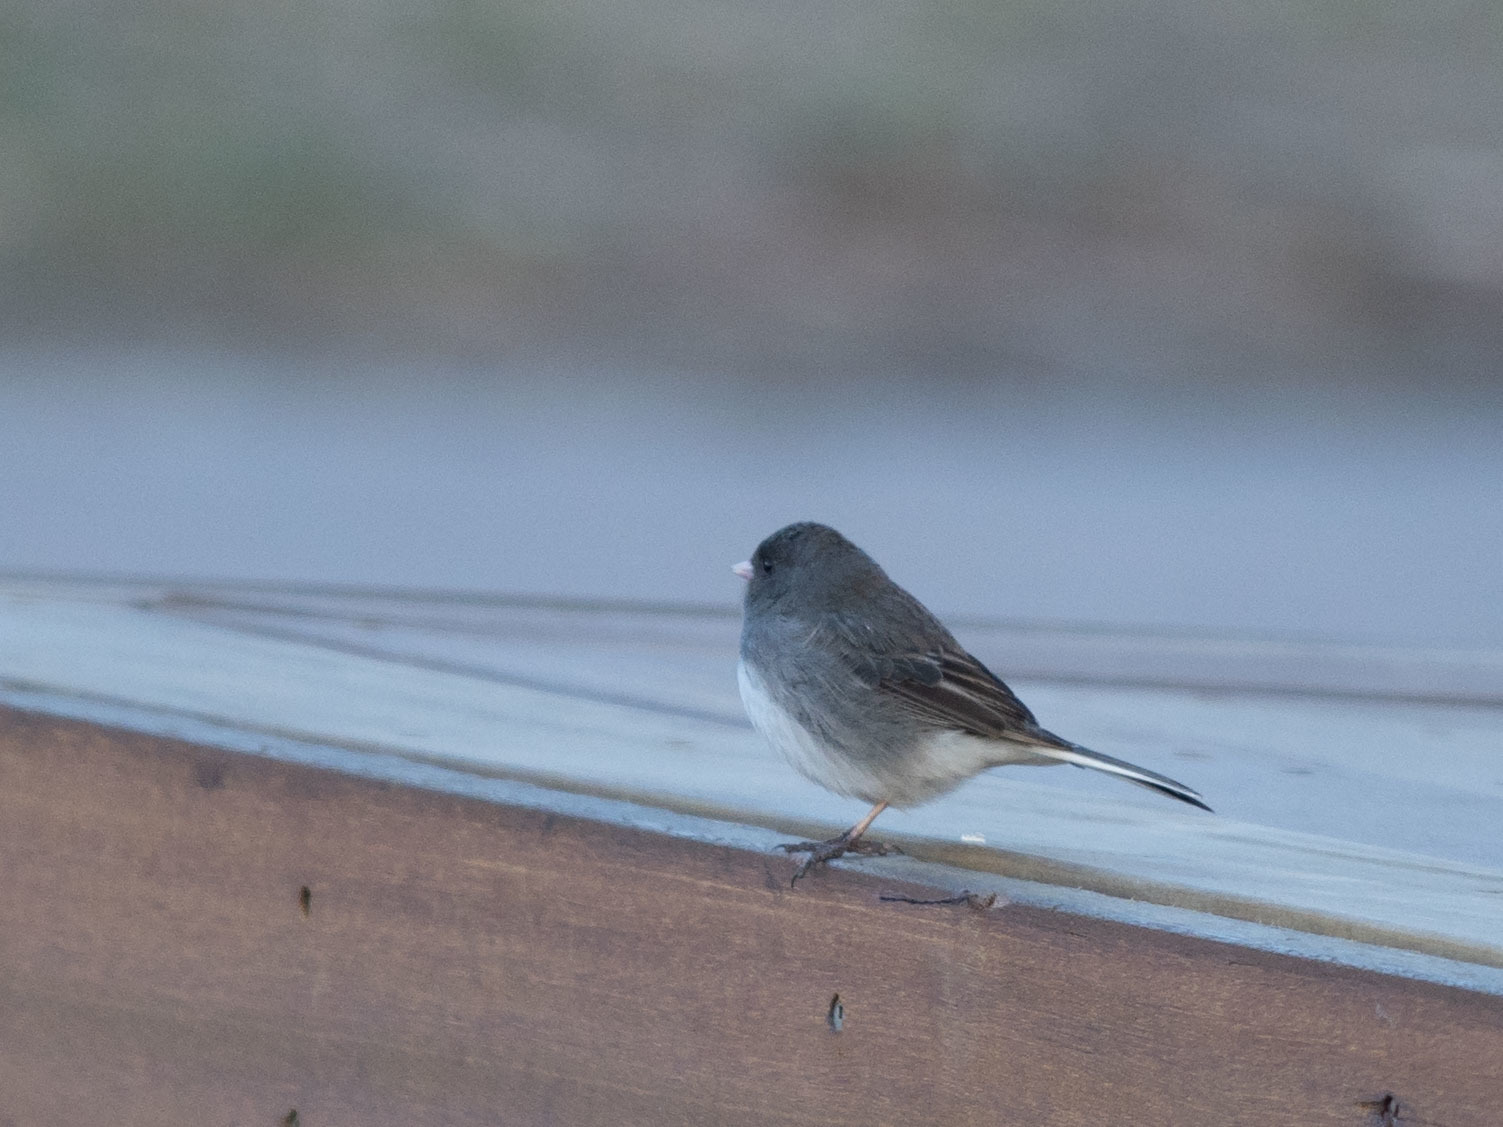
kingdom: Animalia
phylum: Chordata
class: Aves
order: Passeriformes
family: Passerellidae
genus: Junco
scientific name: Junco hyemalis
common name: Dark-eyed junco
